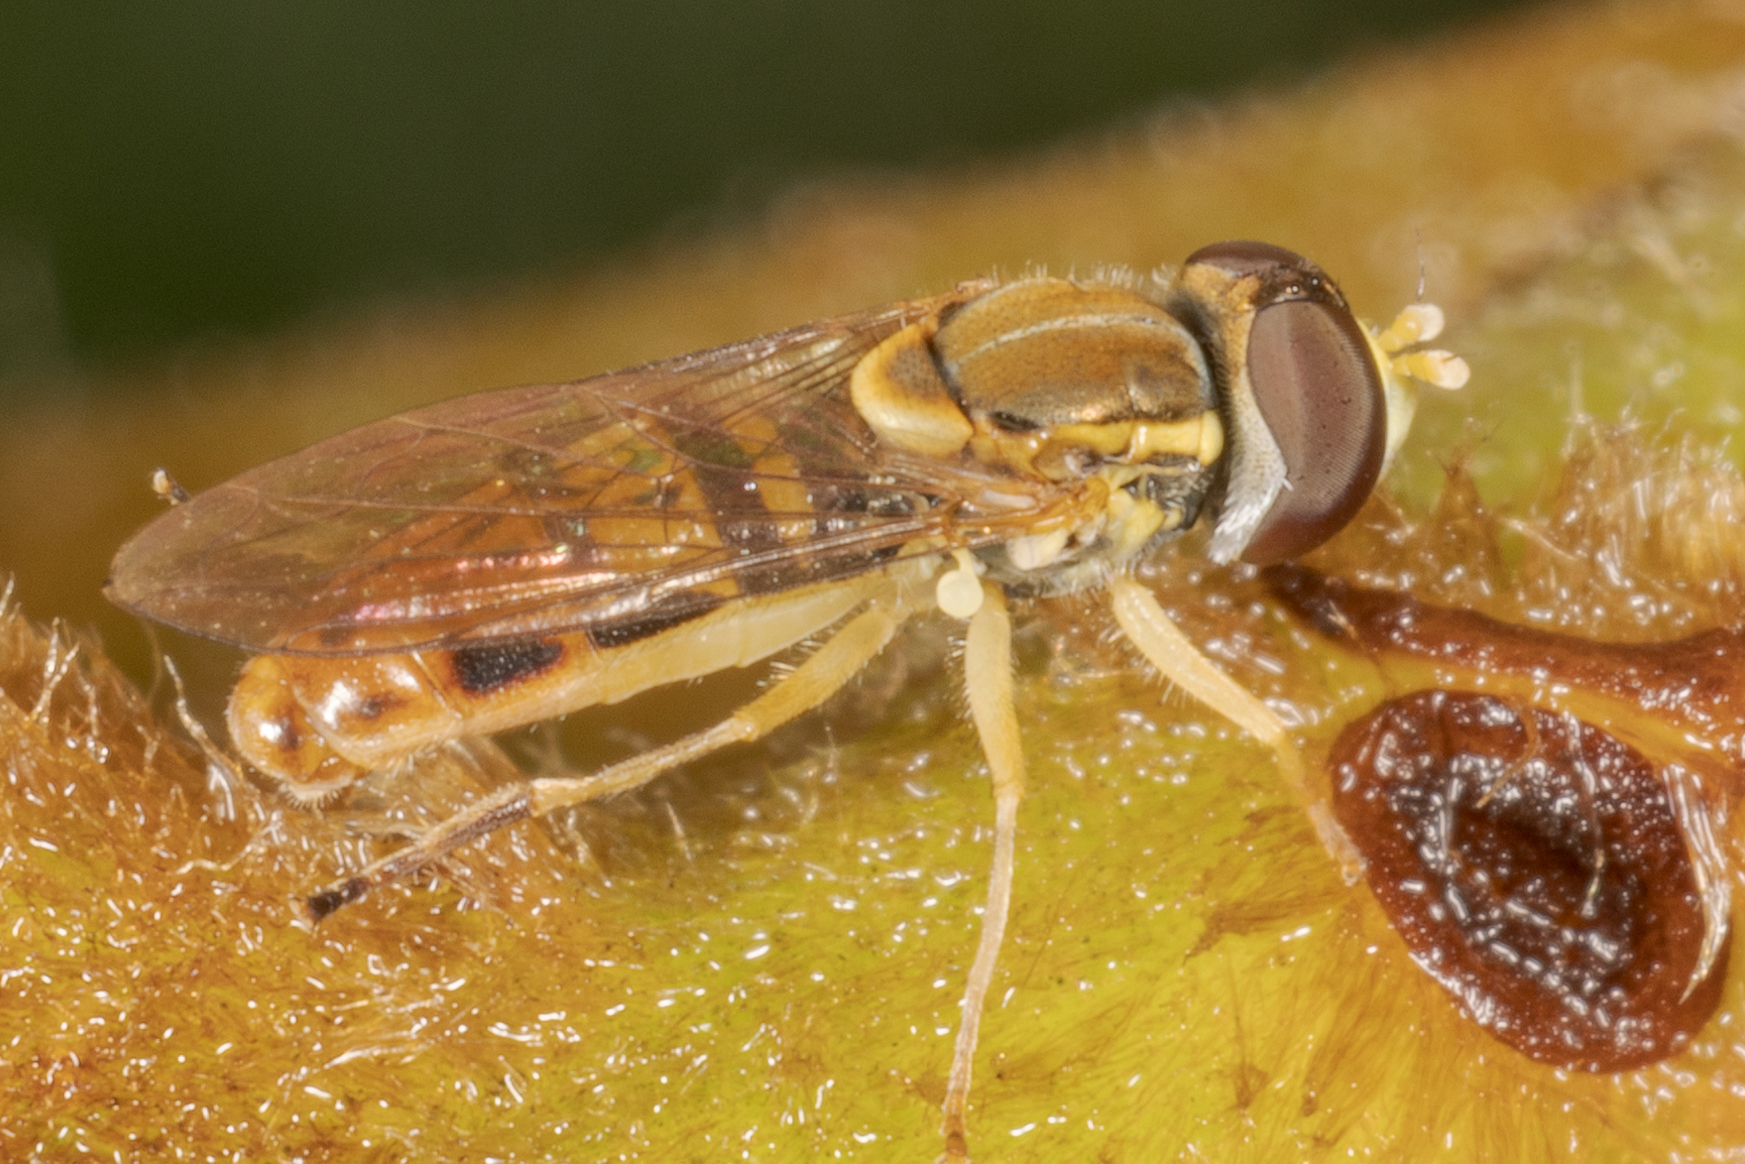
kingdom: Animalia
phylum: Arthropoda
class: Insecta
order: Diptera
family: Syrphidae
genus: Toxomerus
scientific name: Toxomerus marginatus
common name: Syrphid fly
